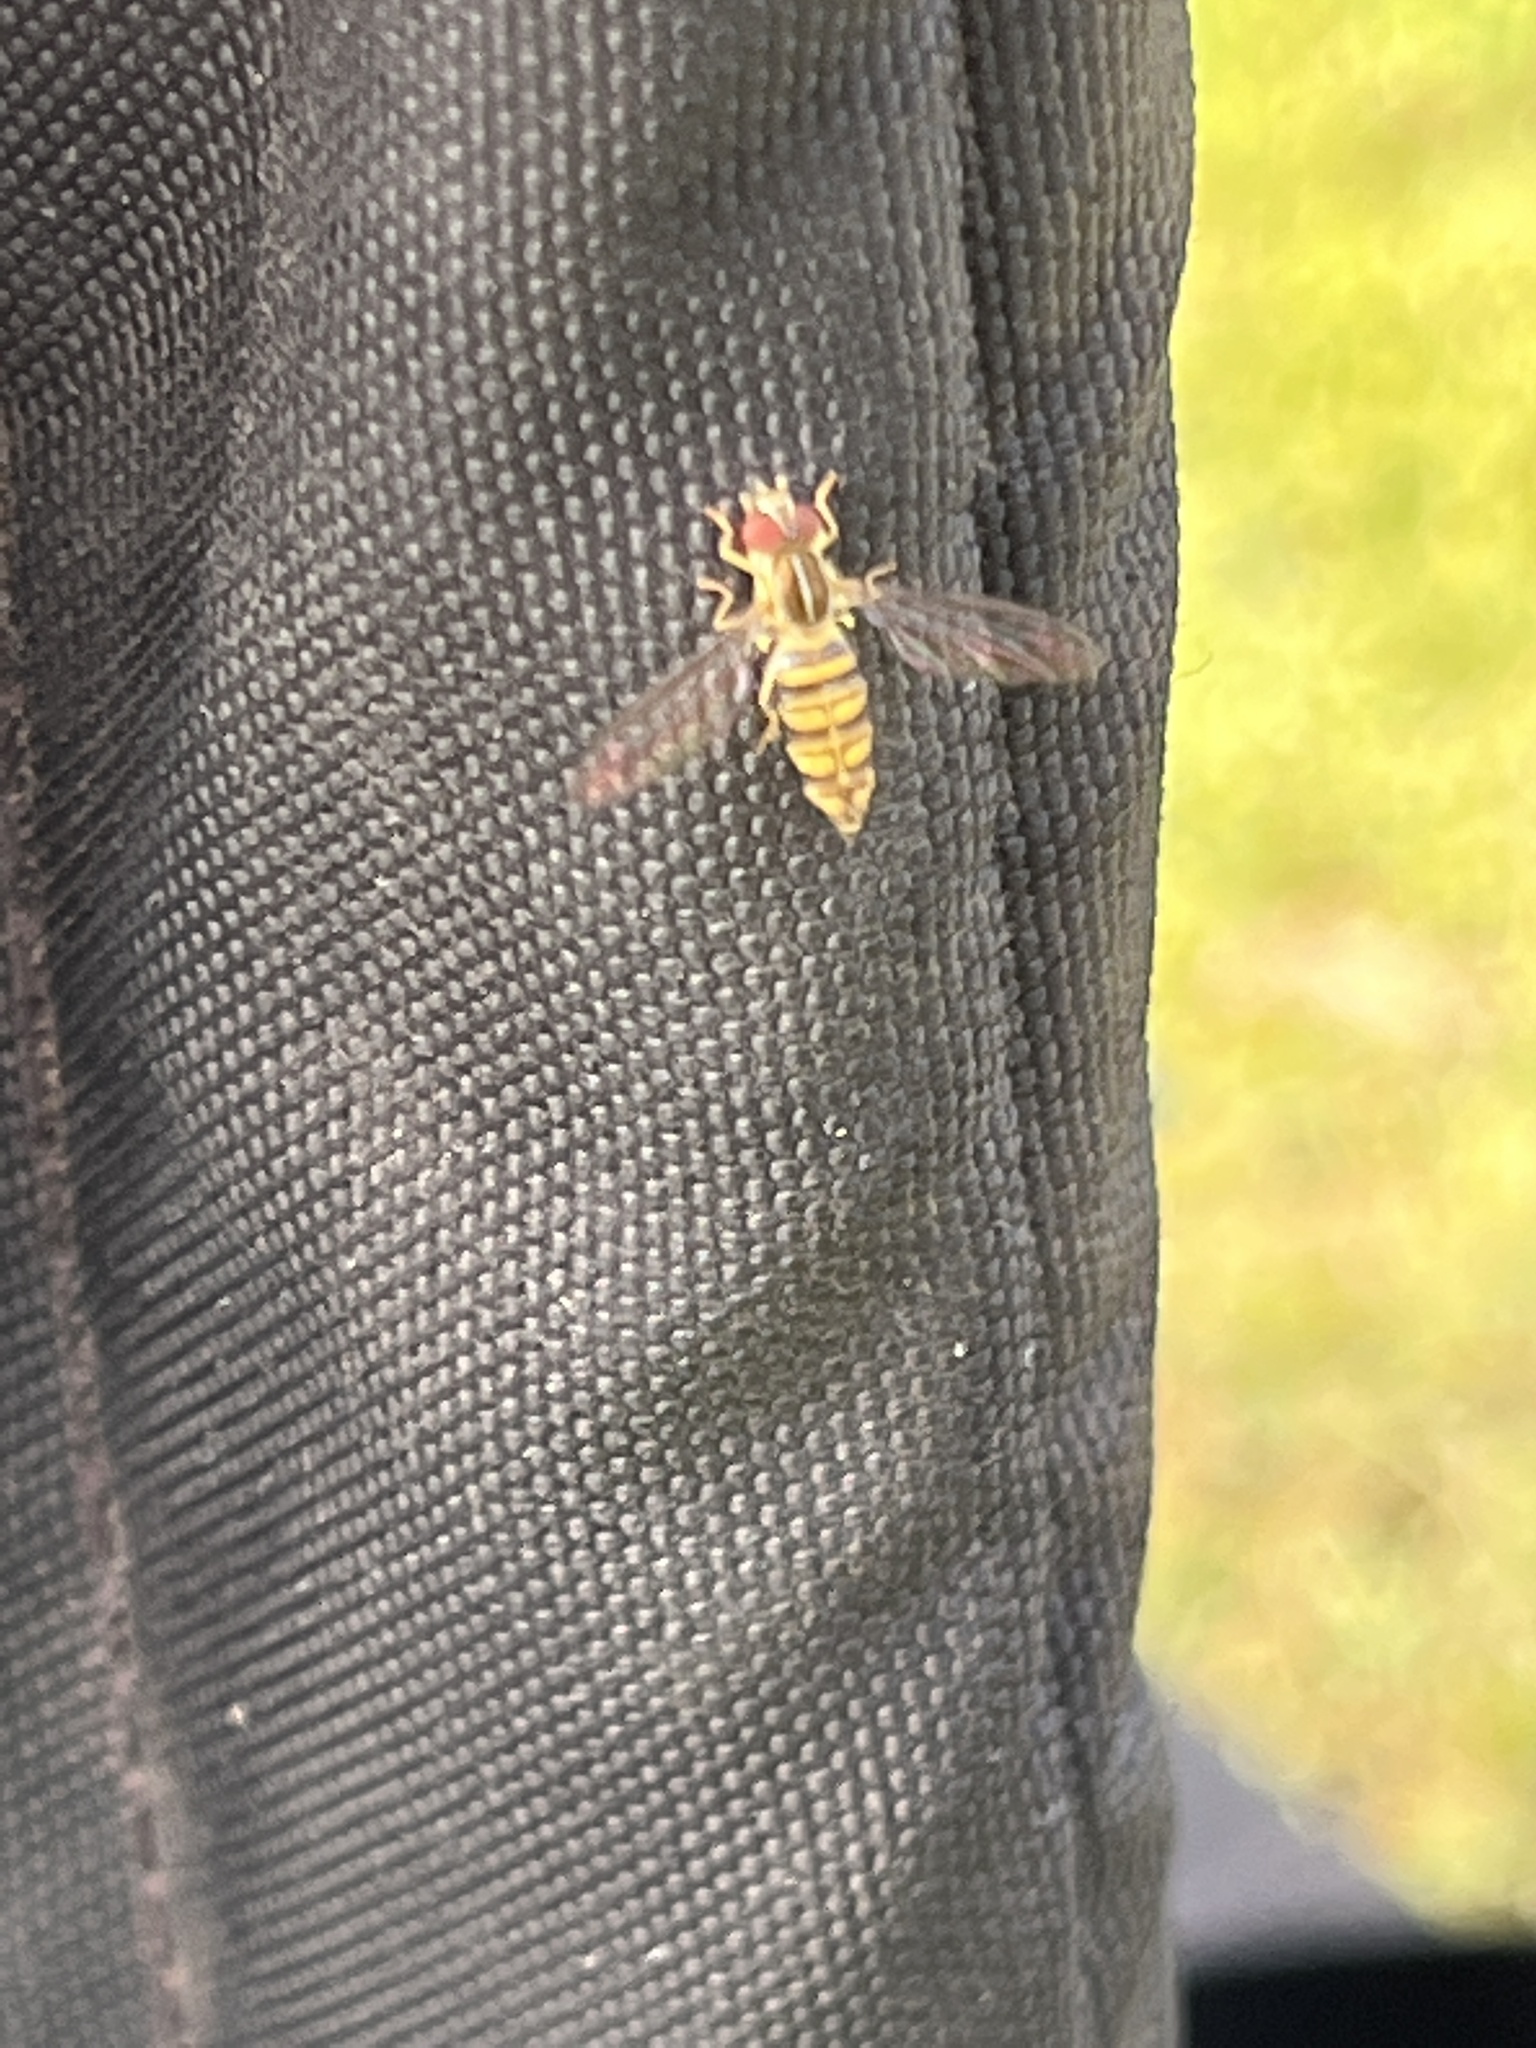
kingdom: Animalia
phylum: Arthropoda
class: Insecta
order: Diptera
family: Syrphidae
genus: Toxomerus
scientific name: Toxomerus politus
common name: Maize calligrapher
